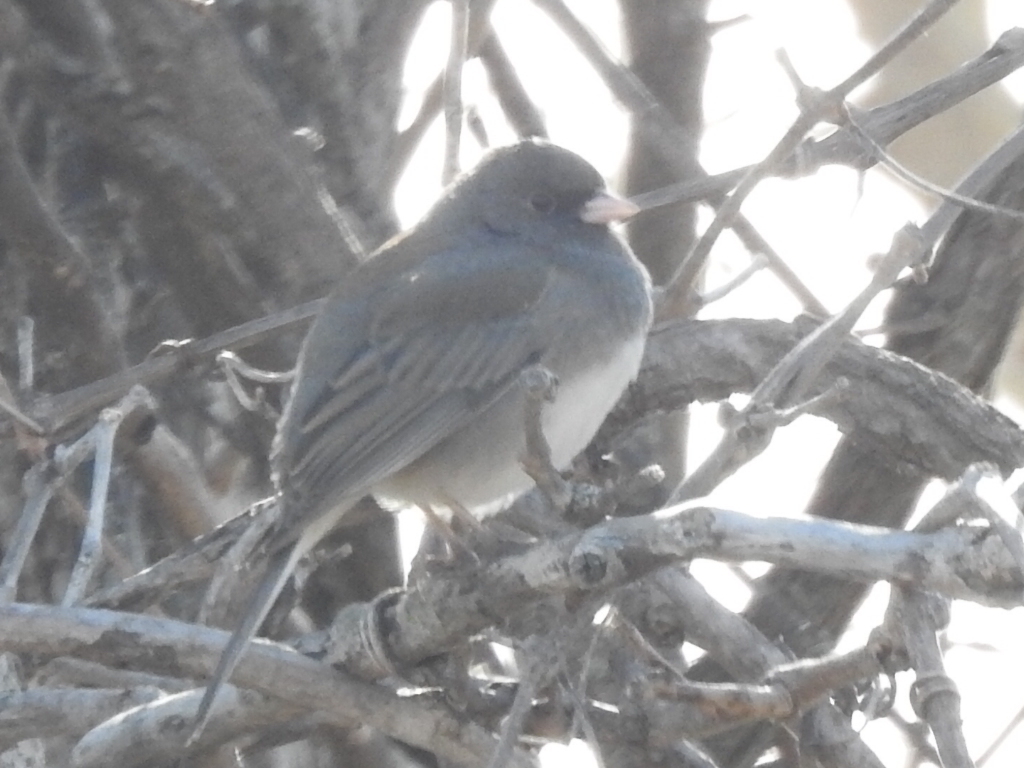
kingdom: Animalia
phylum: Chordata
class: Aves
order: Passeriformes
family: Passerellidae
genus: Junco
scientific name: Junco hyemalis
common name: Dark-eyed junco
